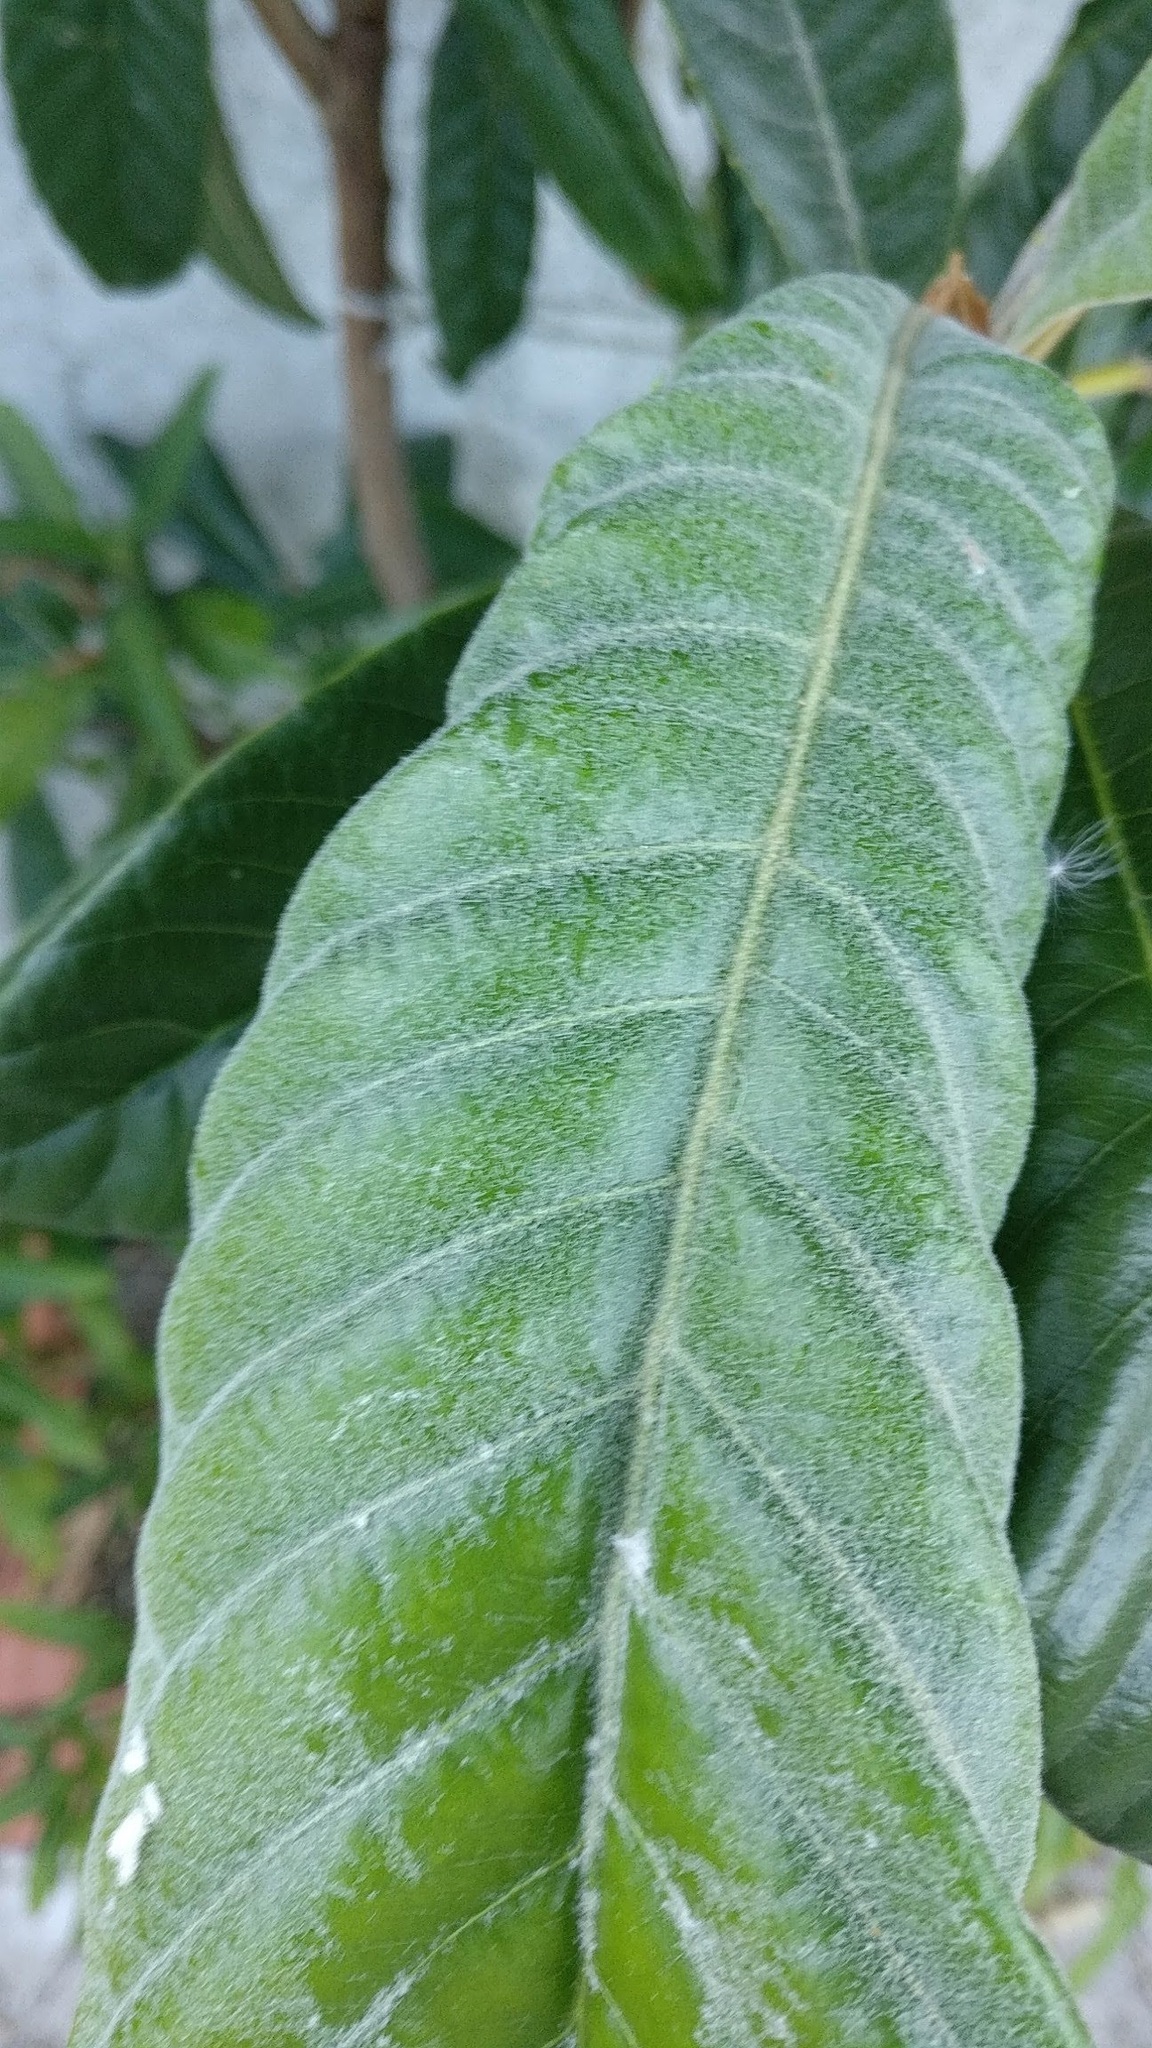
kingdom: Plantae
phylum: Tracheophyta
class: Magnoliopsida
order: Rosales
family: Rosaceae
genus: Rhaphiolepis
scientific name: Rhaphiolepis bibas
